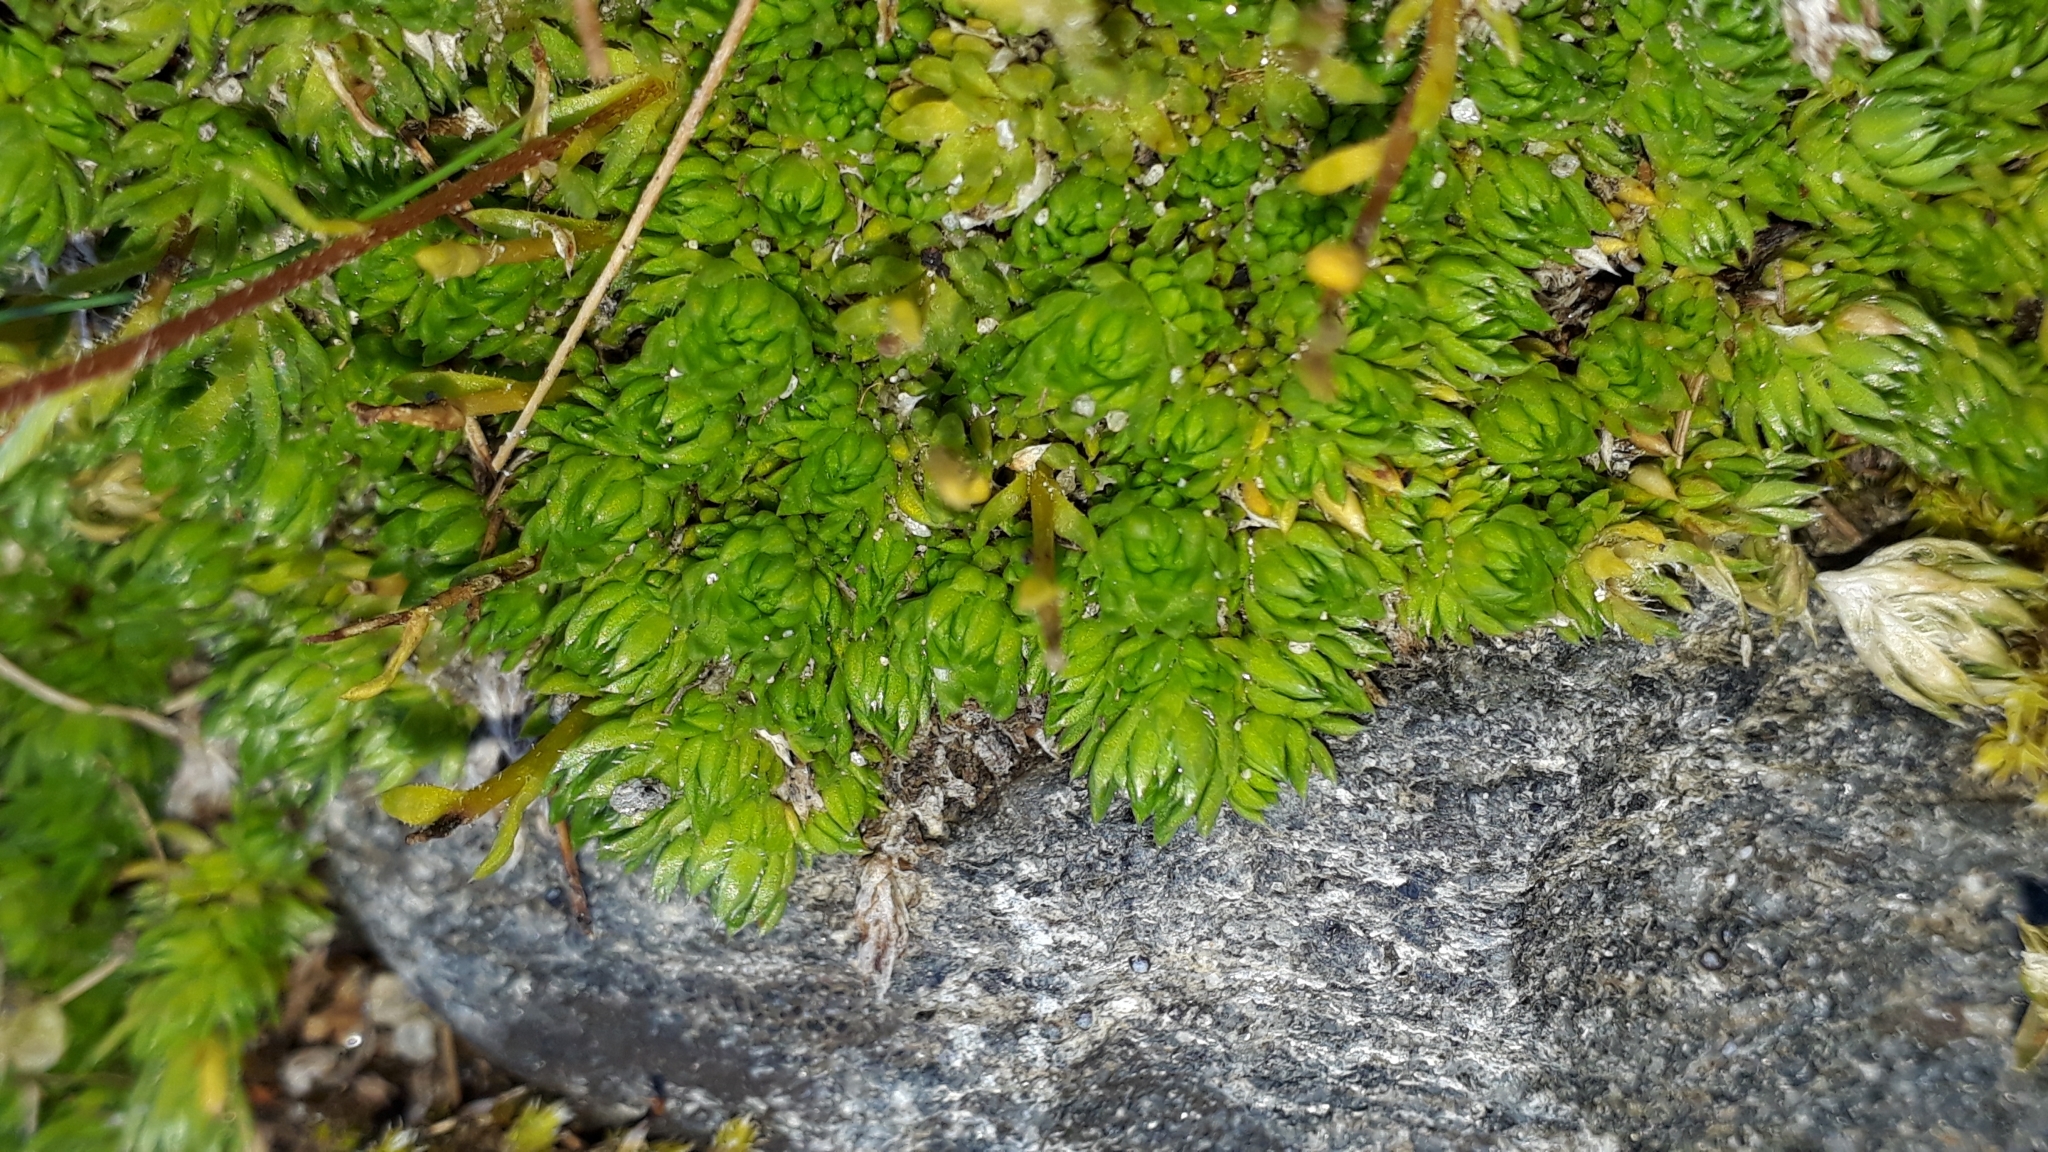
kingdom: Plantae
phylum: Tracheophyta
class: Magnoliopsida
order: Saxifragales
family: Saxifragaceae
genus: Saxifraga
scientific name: Saxifraga bryoides
